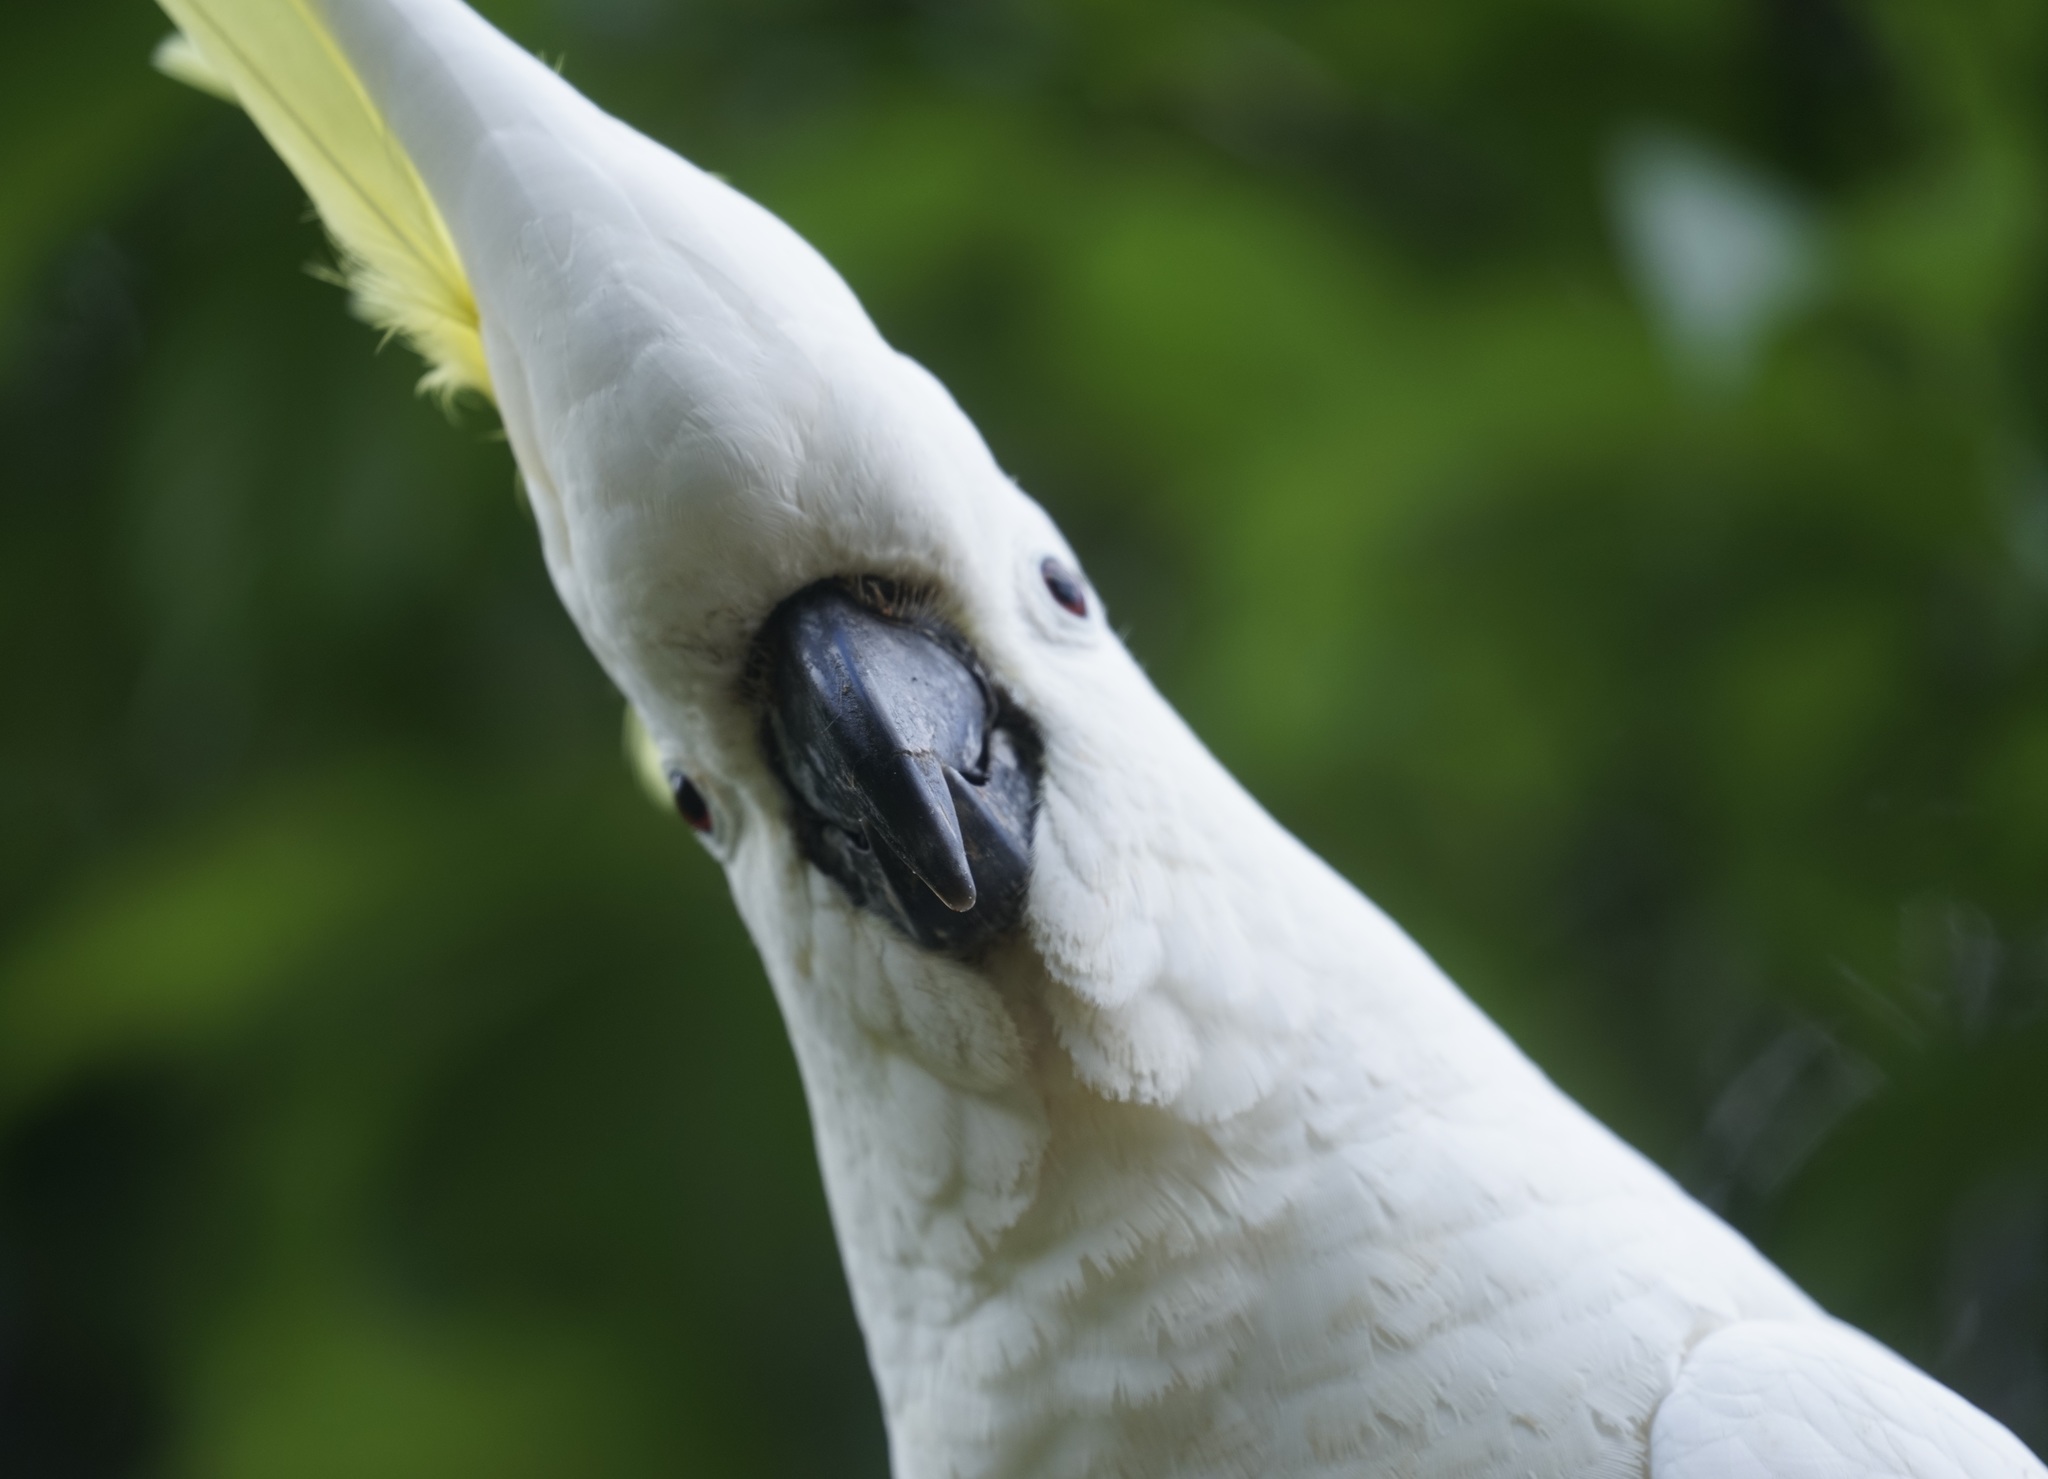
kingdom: Animalia
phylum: Chordata
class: Aves
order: Psittaciformes
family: Psittacidae
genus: Cacatua
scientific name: Cacatua galerita
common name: Sulphur-crested cockatoo
